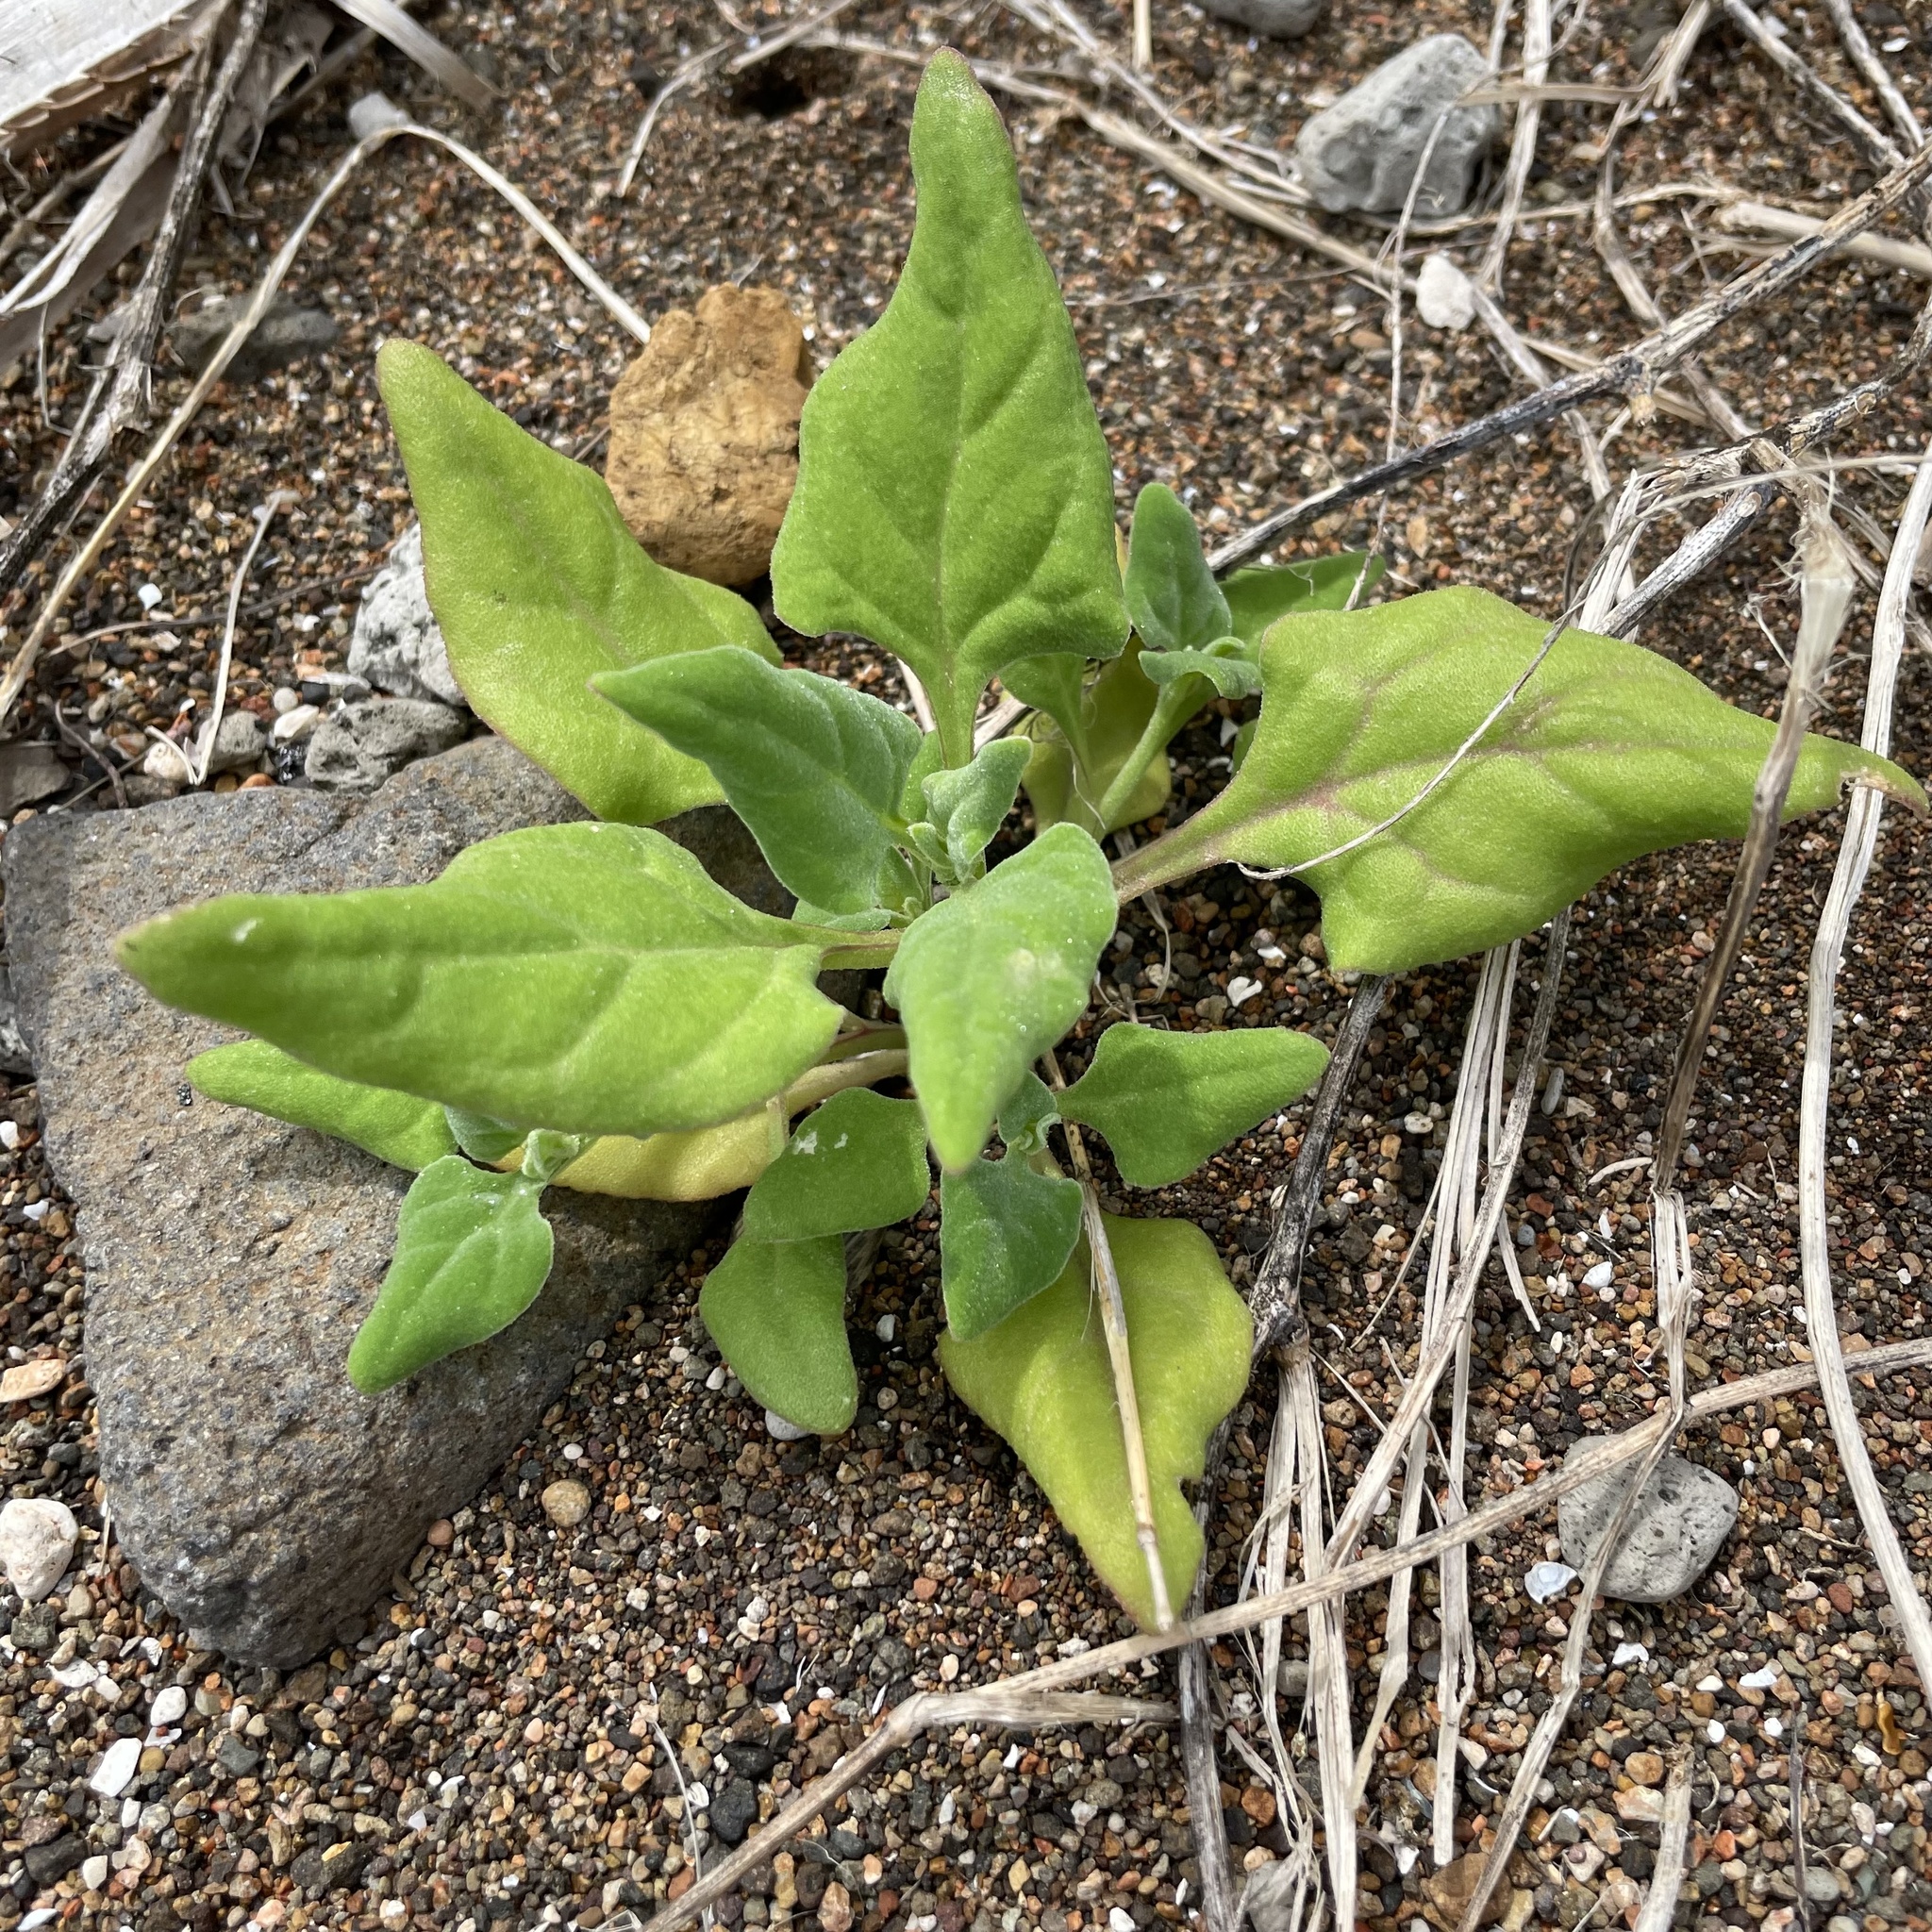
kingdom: Plantae
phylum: Tracheophyta
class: Magnoliopsida
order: Caryophyllales
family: Aizoaceae
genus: Tetragonia
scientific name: Tetragonia tetragonoides
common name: New zealand-spinach
